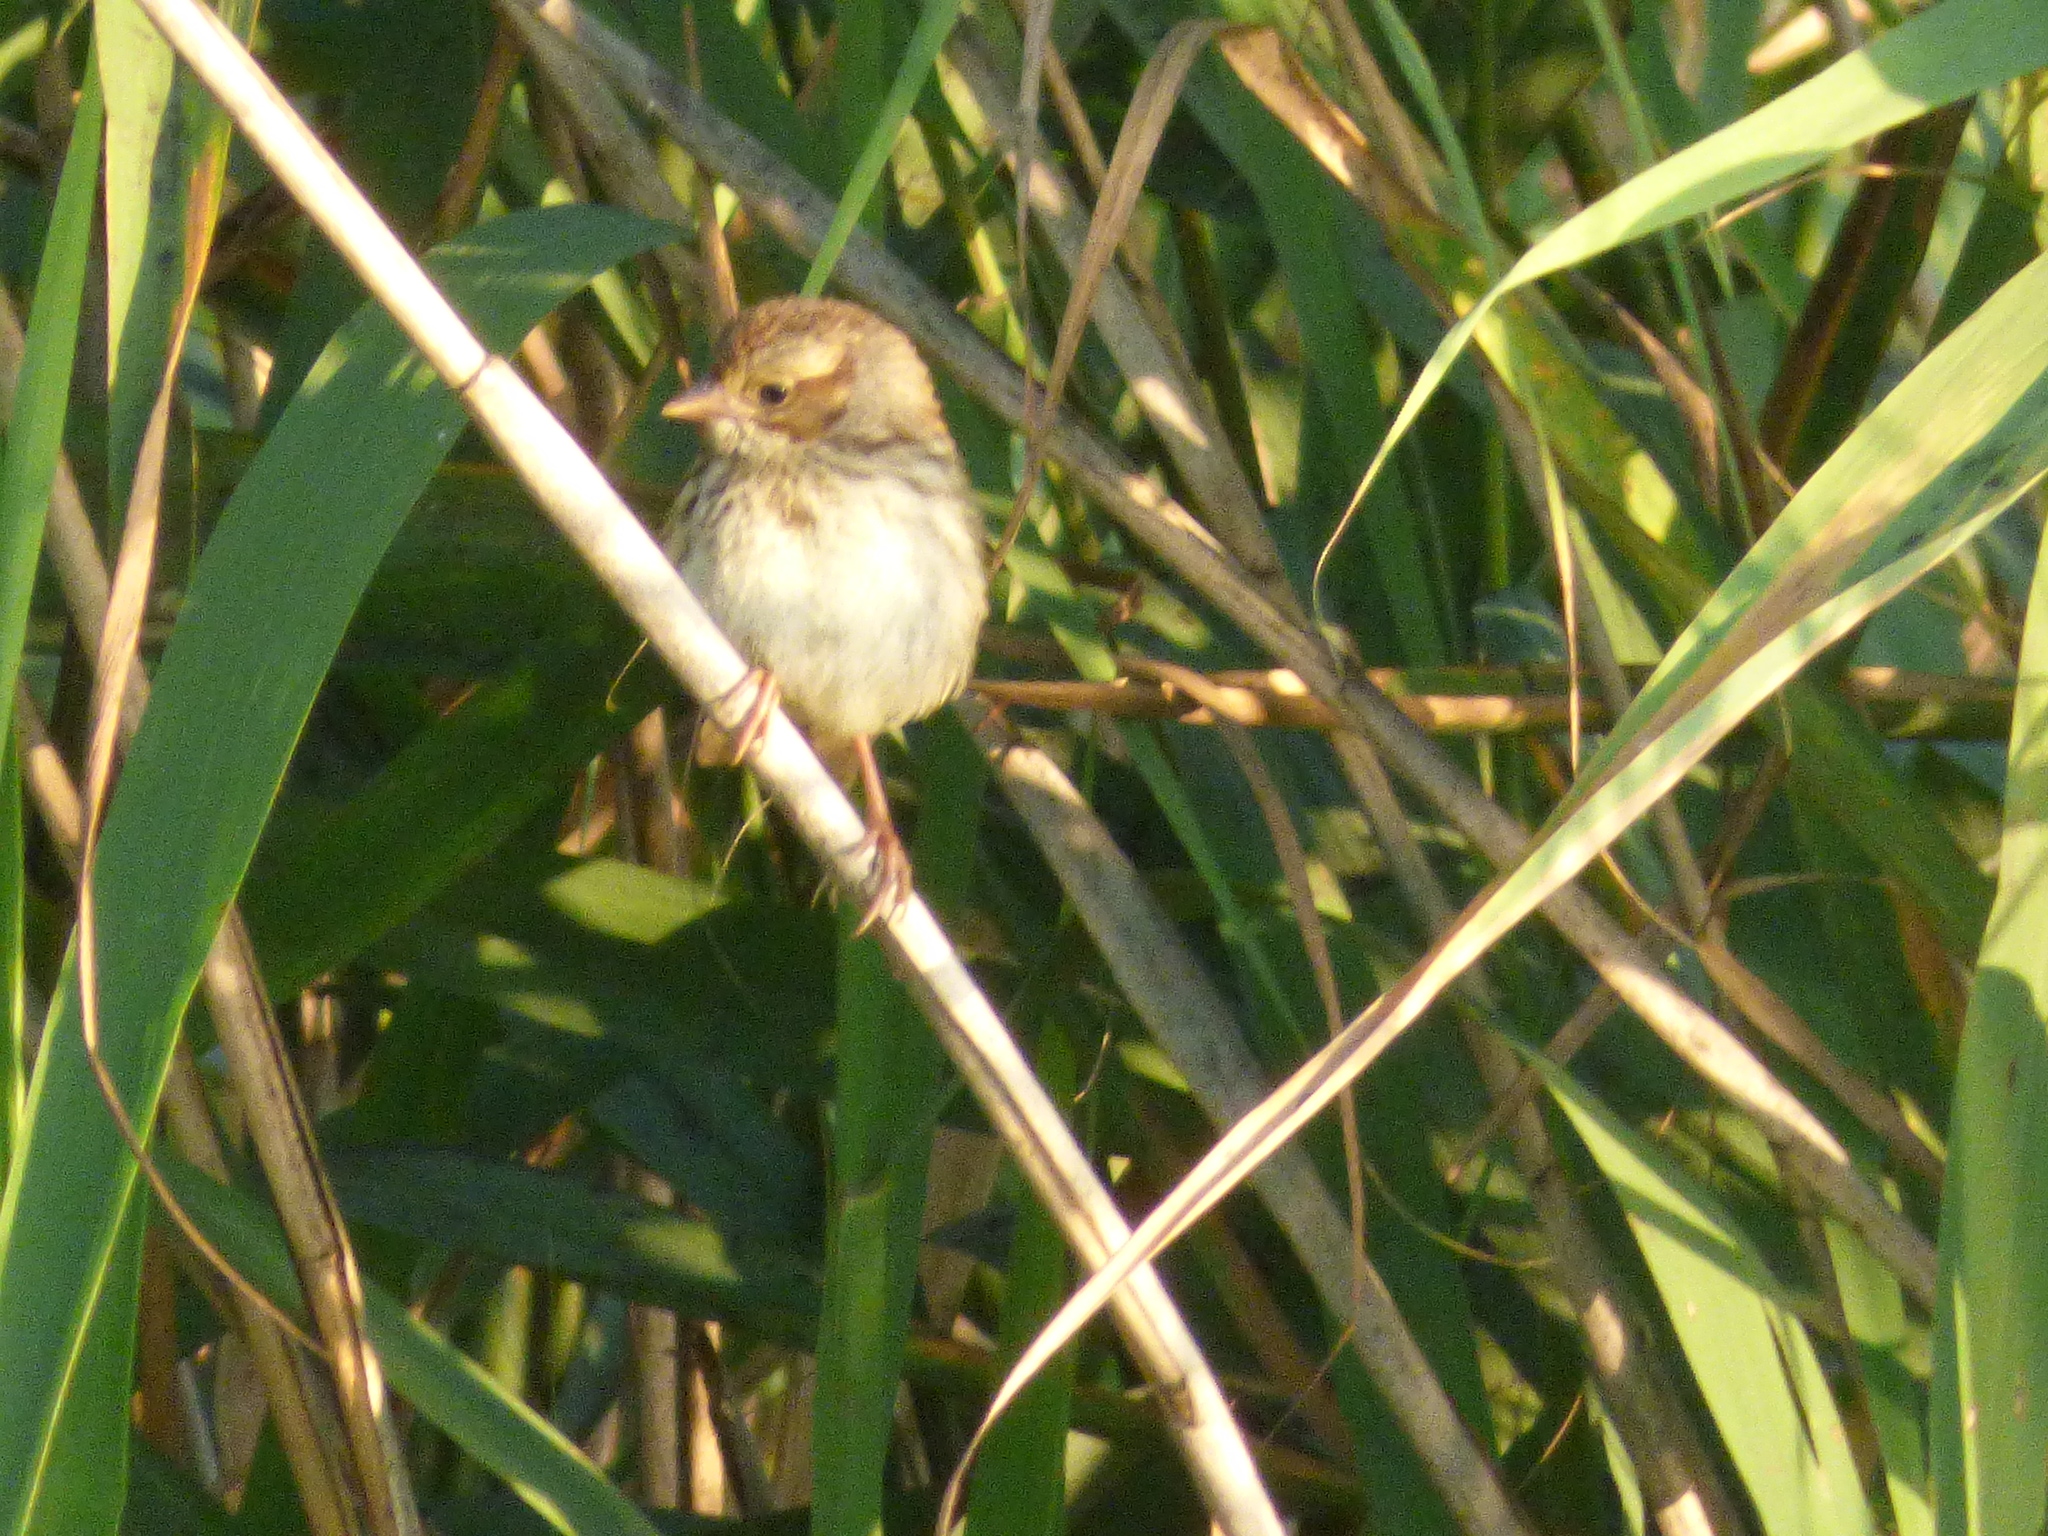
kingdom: Animalia
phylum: Chordata
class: Aves
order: Passeriformes
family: Passerellidae
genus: Melospiza
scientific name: Melospiza melodia
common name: Song sparrow
